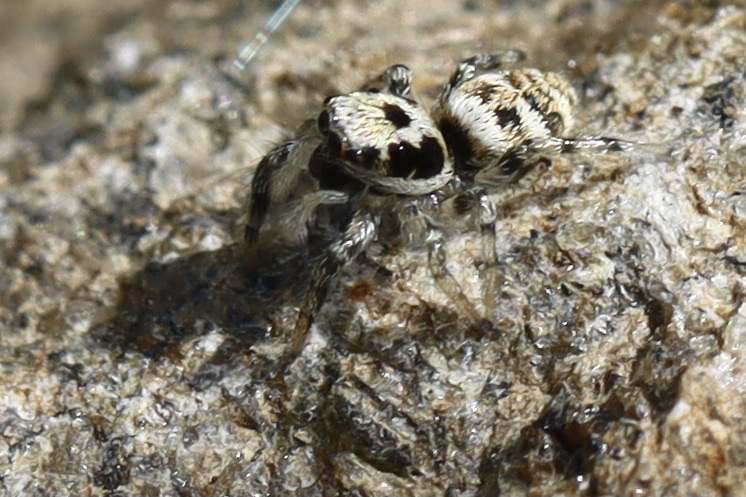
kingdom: Animalia
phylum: Arthropoda
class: Arachnida
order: Araneae
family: Salticidae
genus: Salticus
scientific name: Salticus scenicus
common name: Zebra jumper
